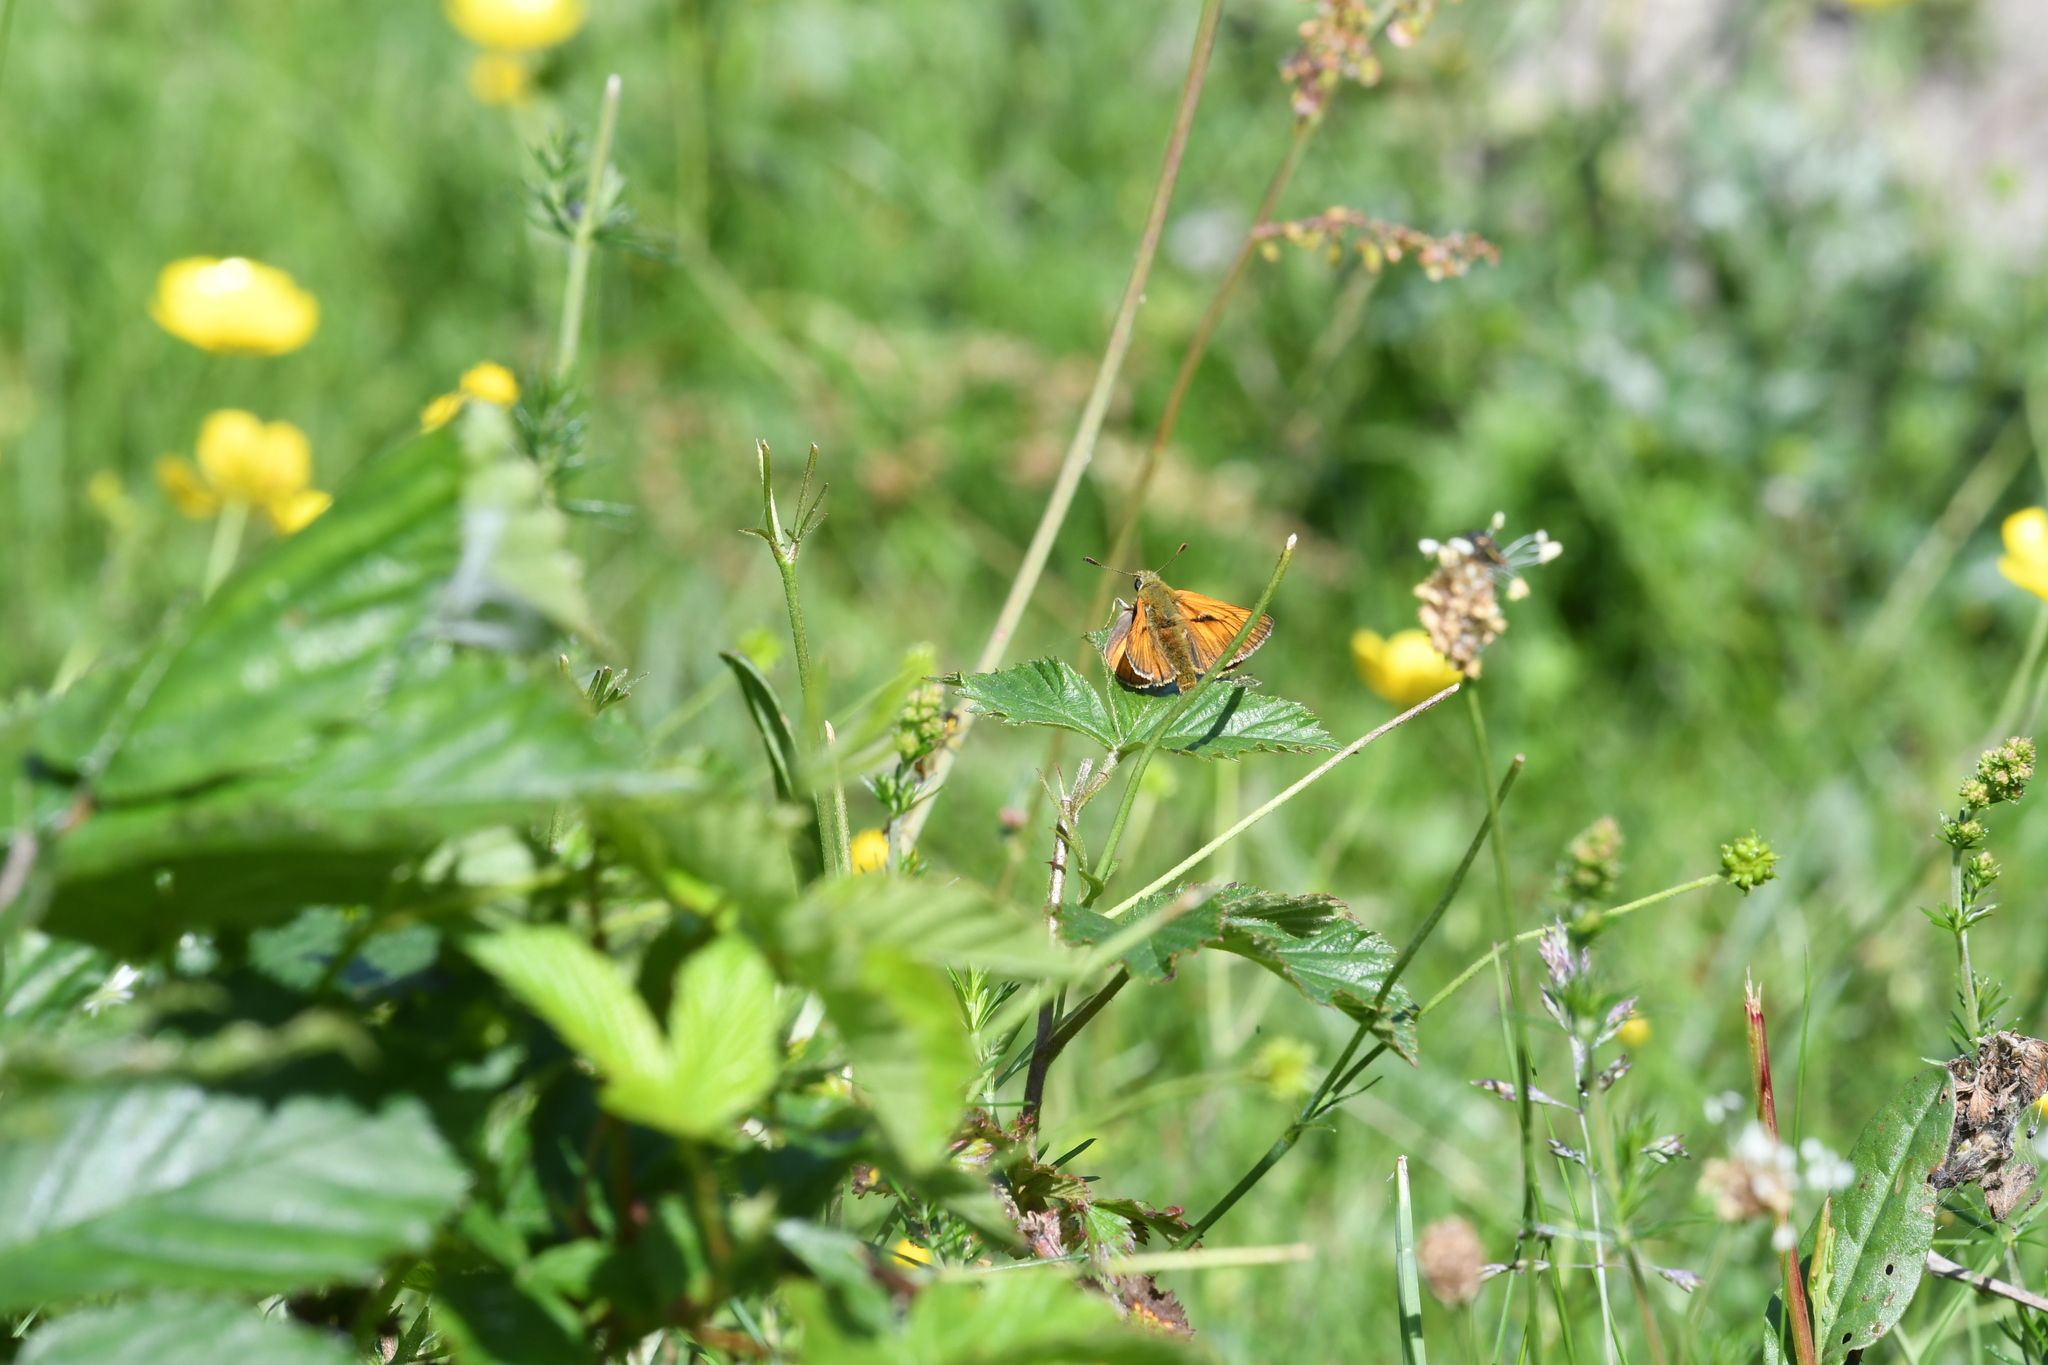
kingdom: Animalia
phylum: Arthropoda
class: Insecta
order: Lepidoptera
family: Hesperiidae
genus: Ochlodes
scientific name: Ochlodes venata
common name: Large skipper
